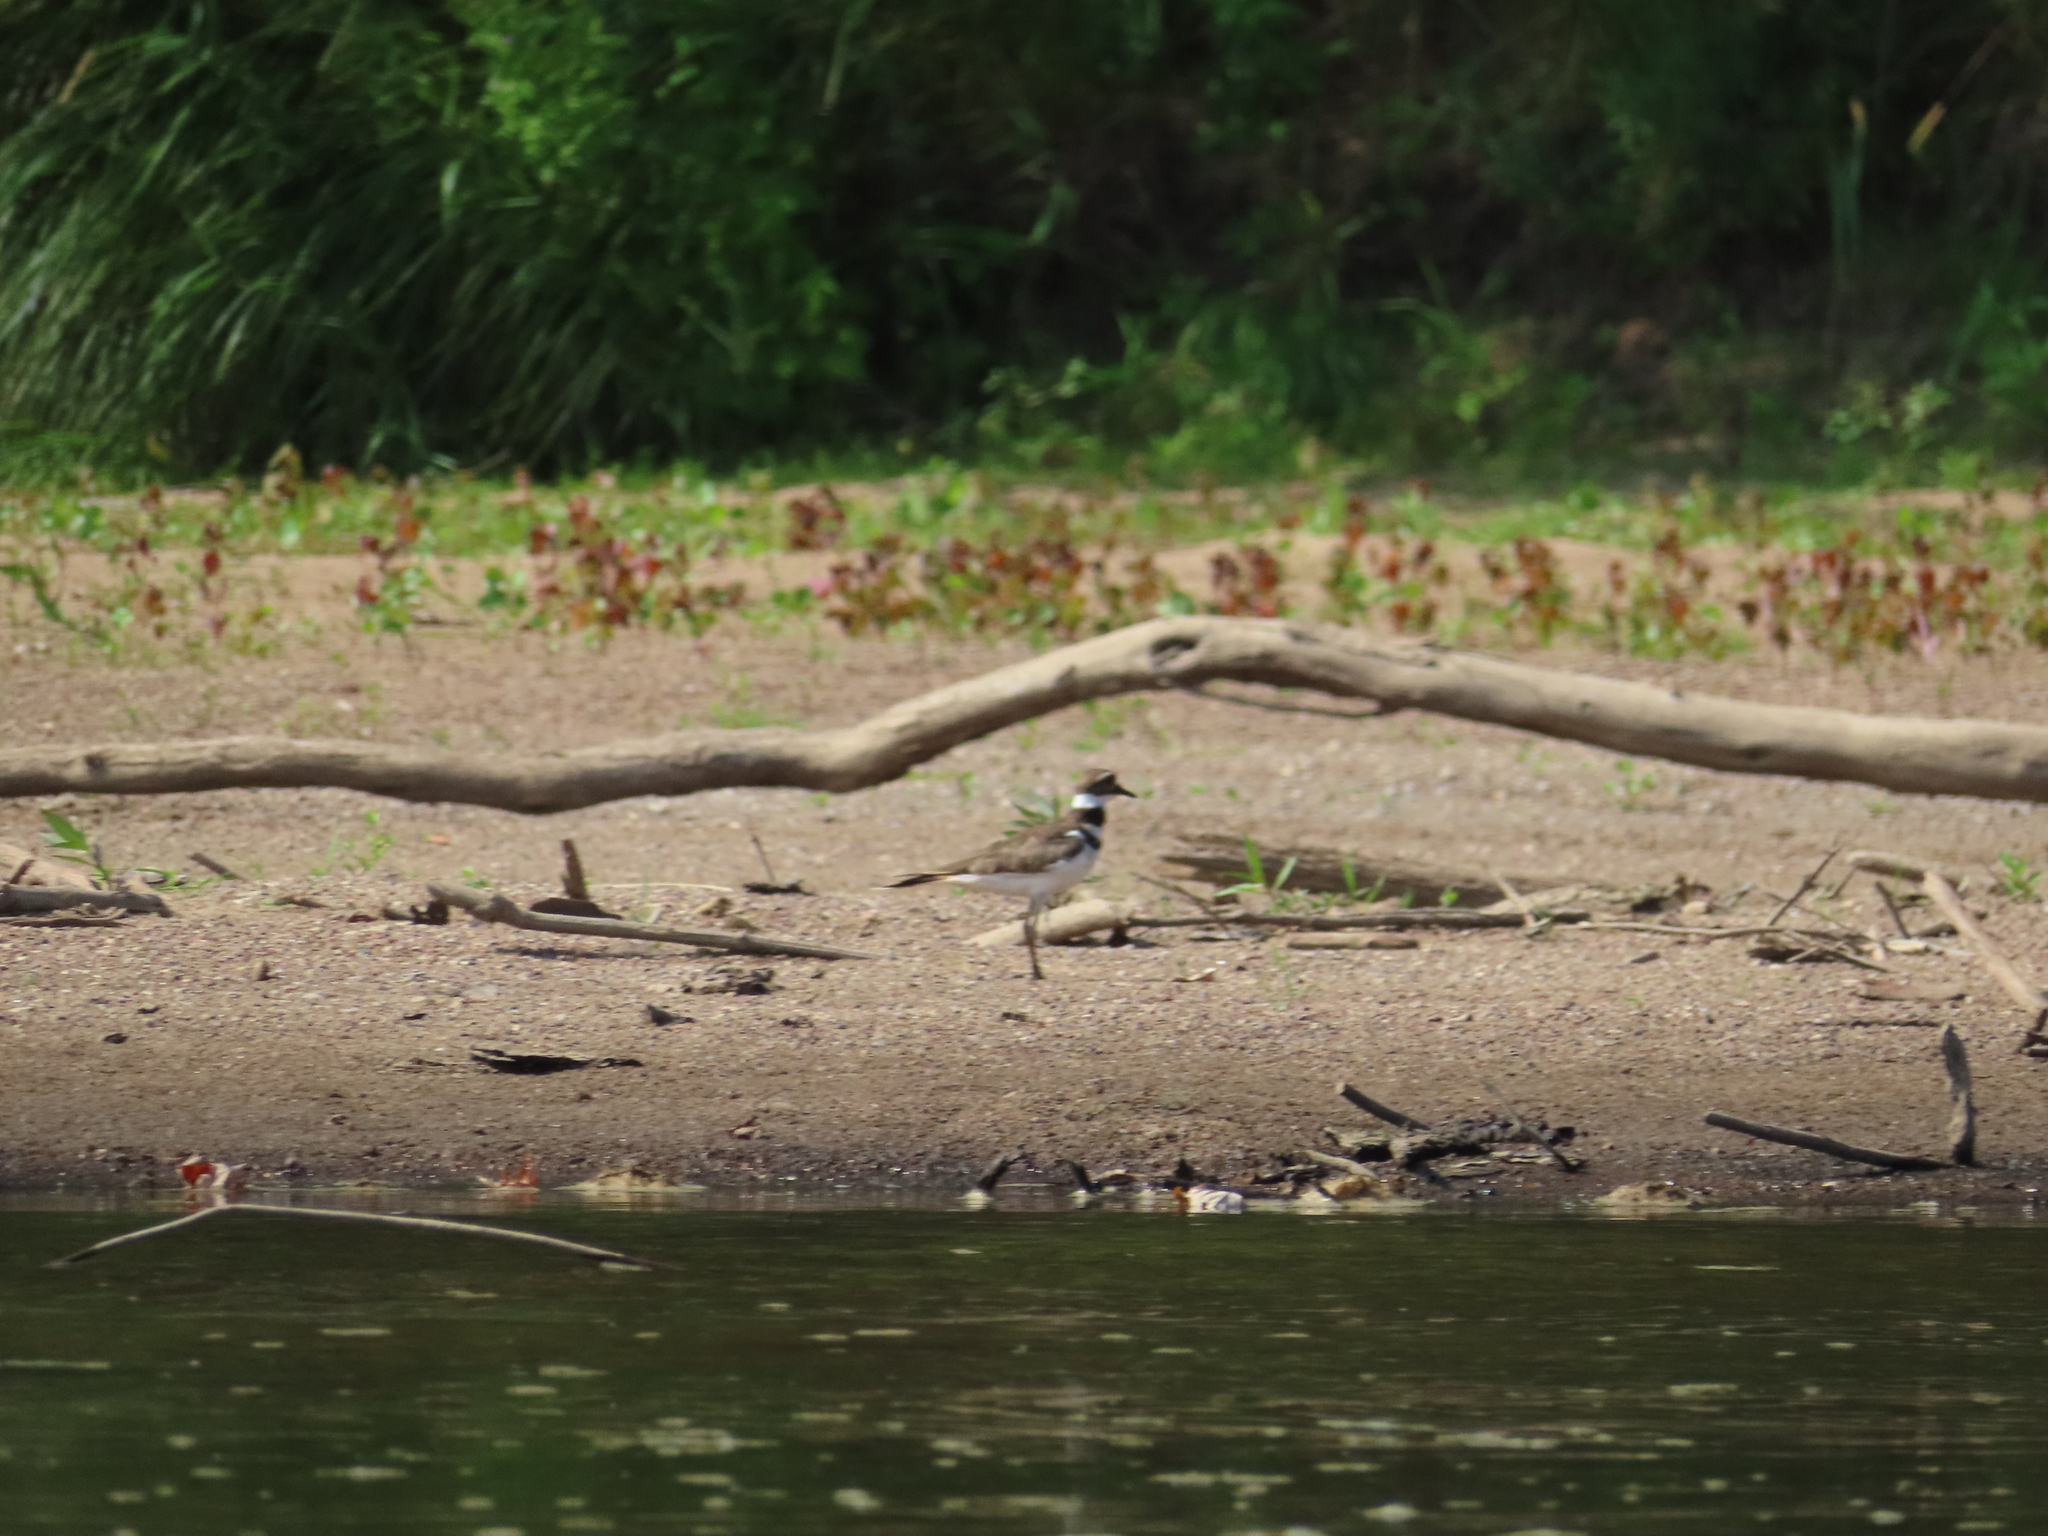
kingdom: Animalia
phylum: Chordata
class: Aves
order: Charadriiformes
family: Charadriidae
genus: Charadrius
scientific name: Charadrius vociferus
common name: Killdeer
